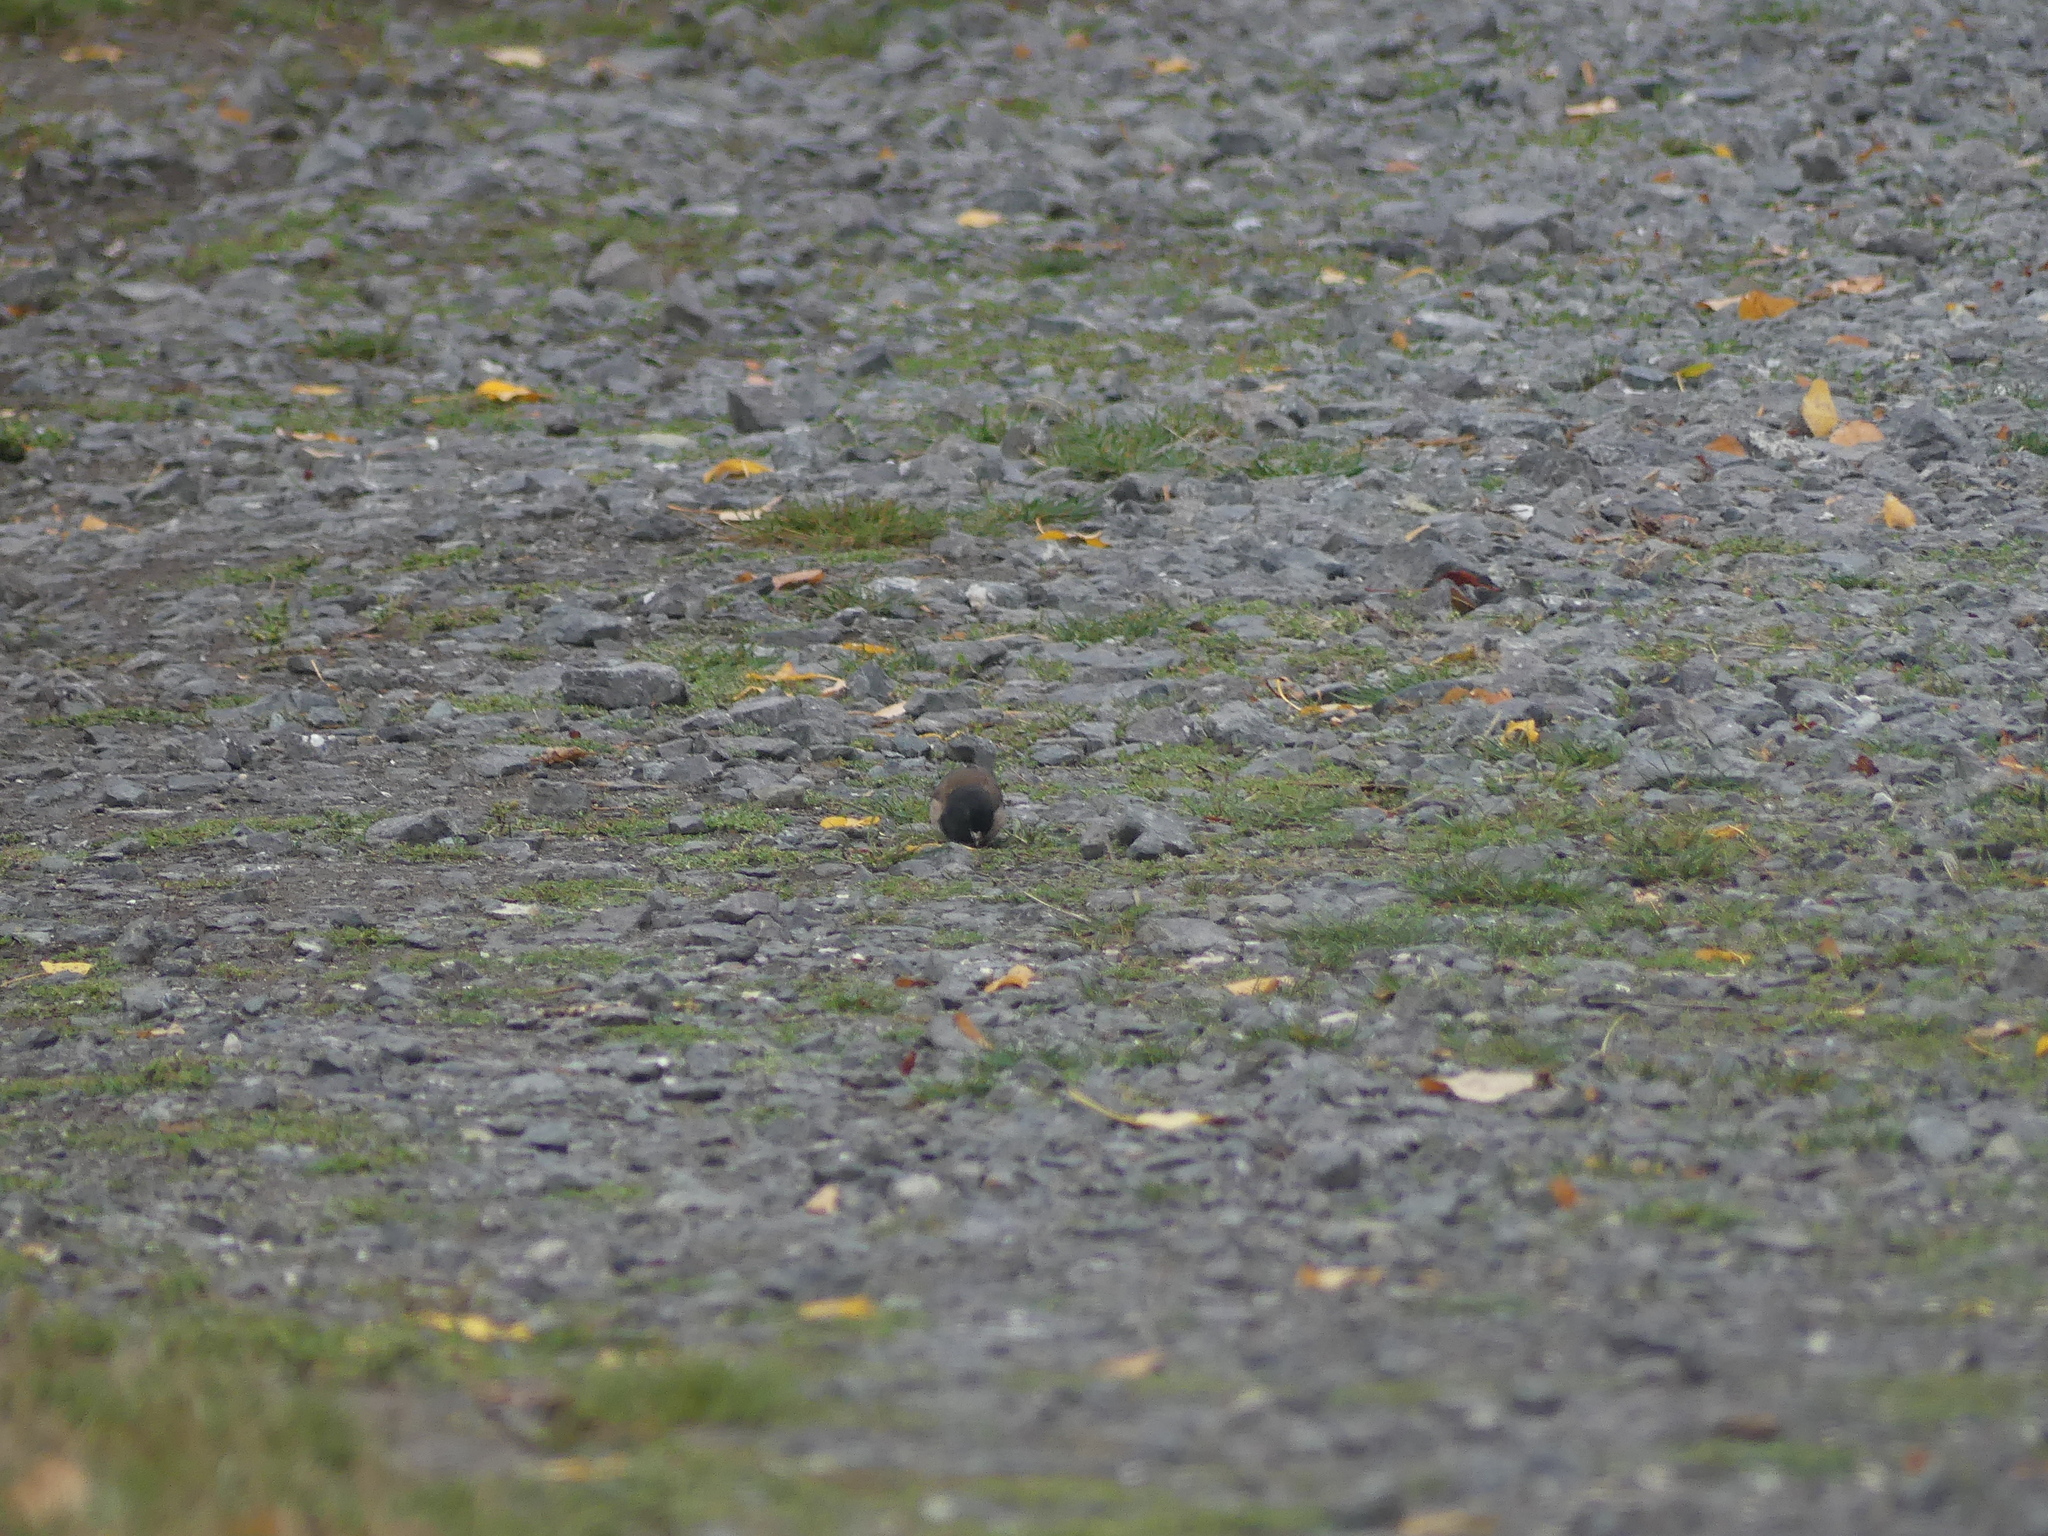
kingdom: Animalia
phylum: Chordata
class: Aves
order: Passeriformes
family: Passerellidae
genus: Junco
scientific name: Junco hyemalis
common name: Dark-eyed junco
